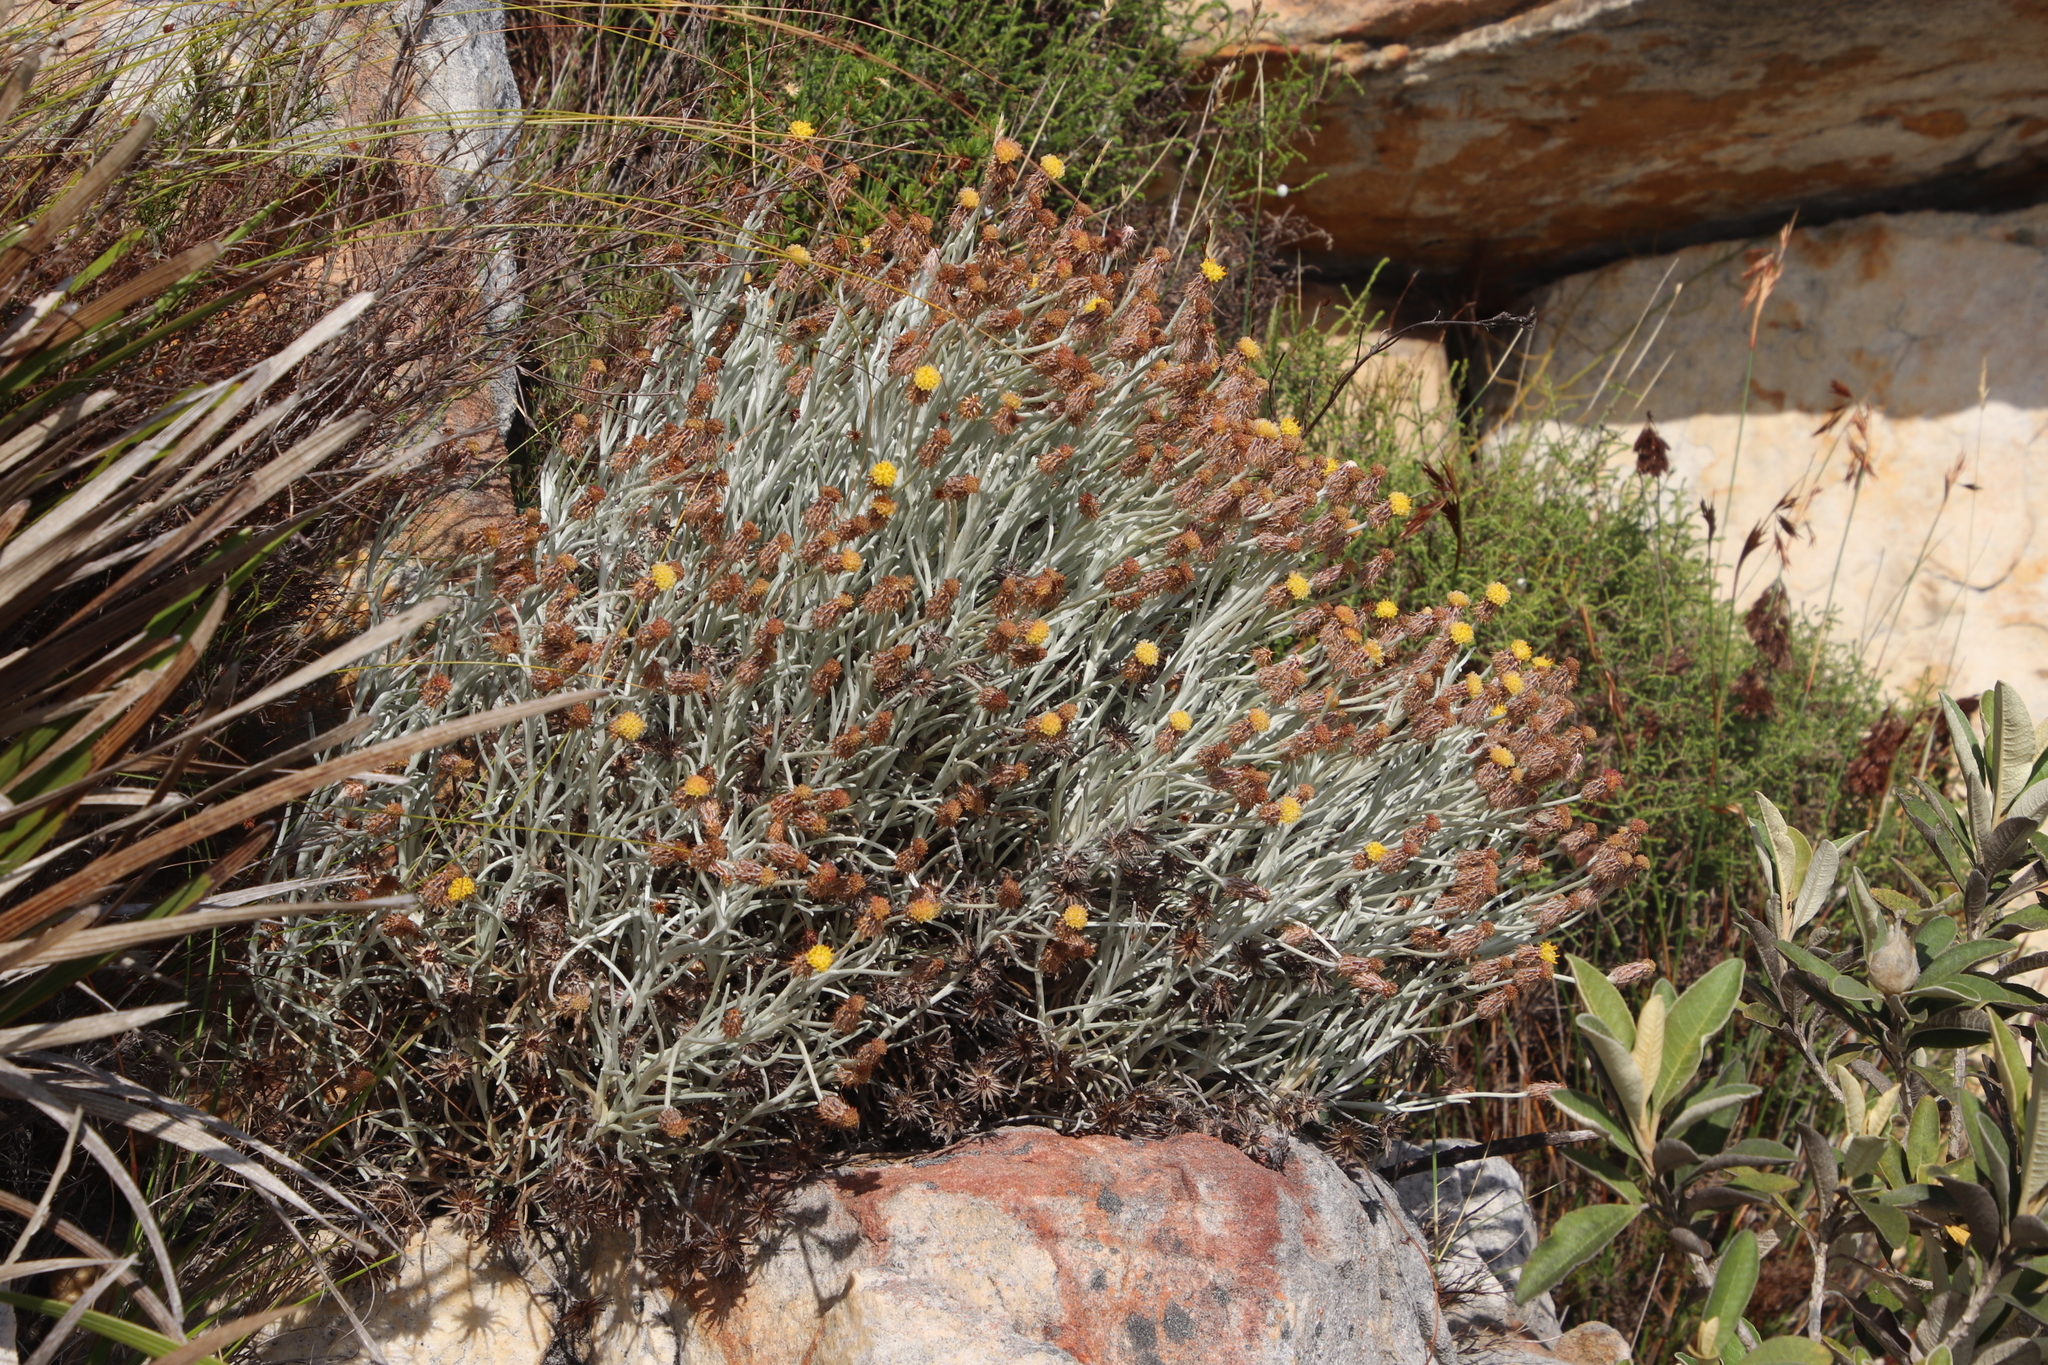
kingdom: Plantae
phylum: Tracheophyta
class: Magnoliopsida
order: Asterales
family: Asteraceae
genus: Syncarpha
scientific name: Syncarpha gnaphaloides
